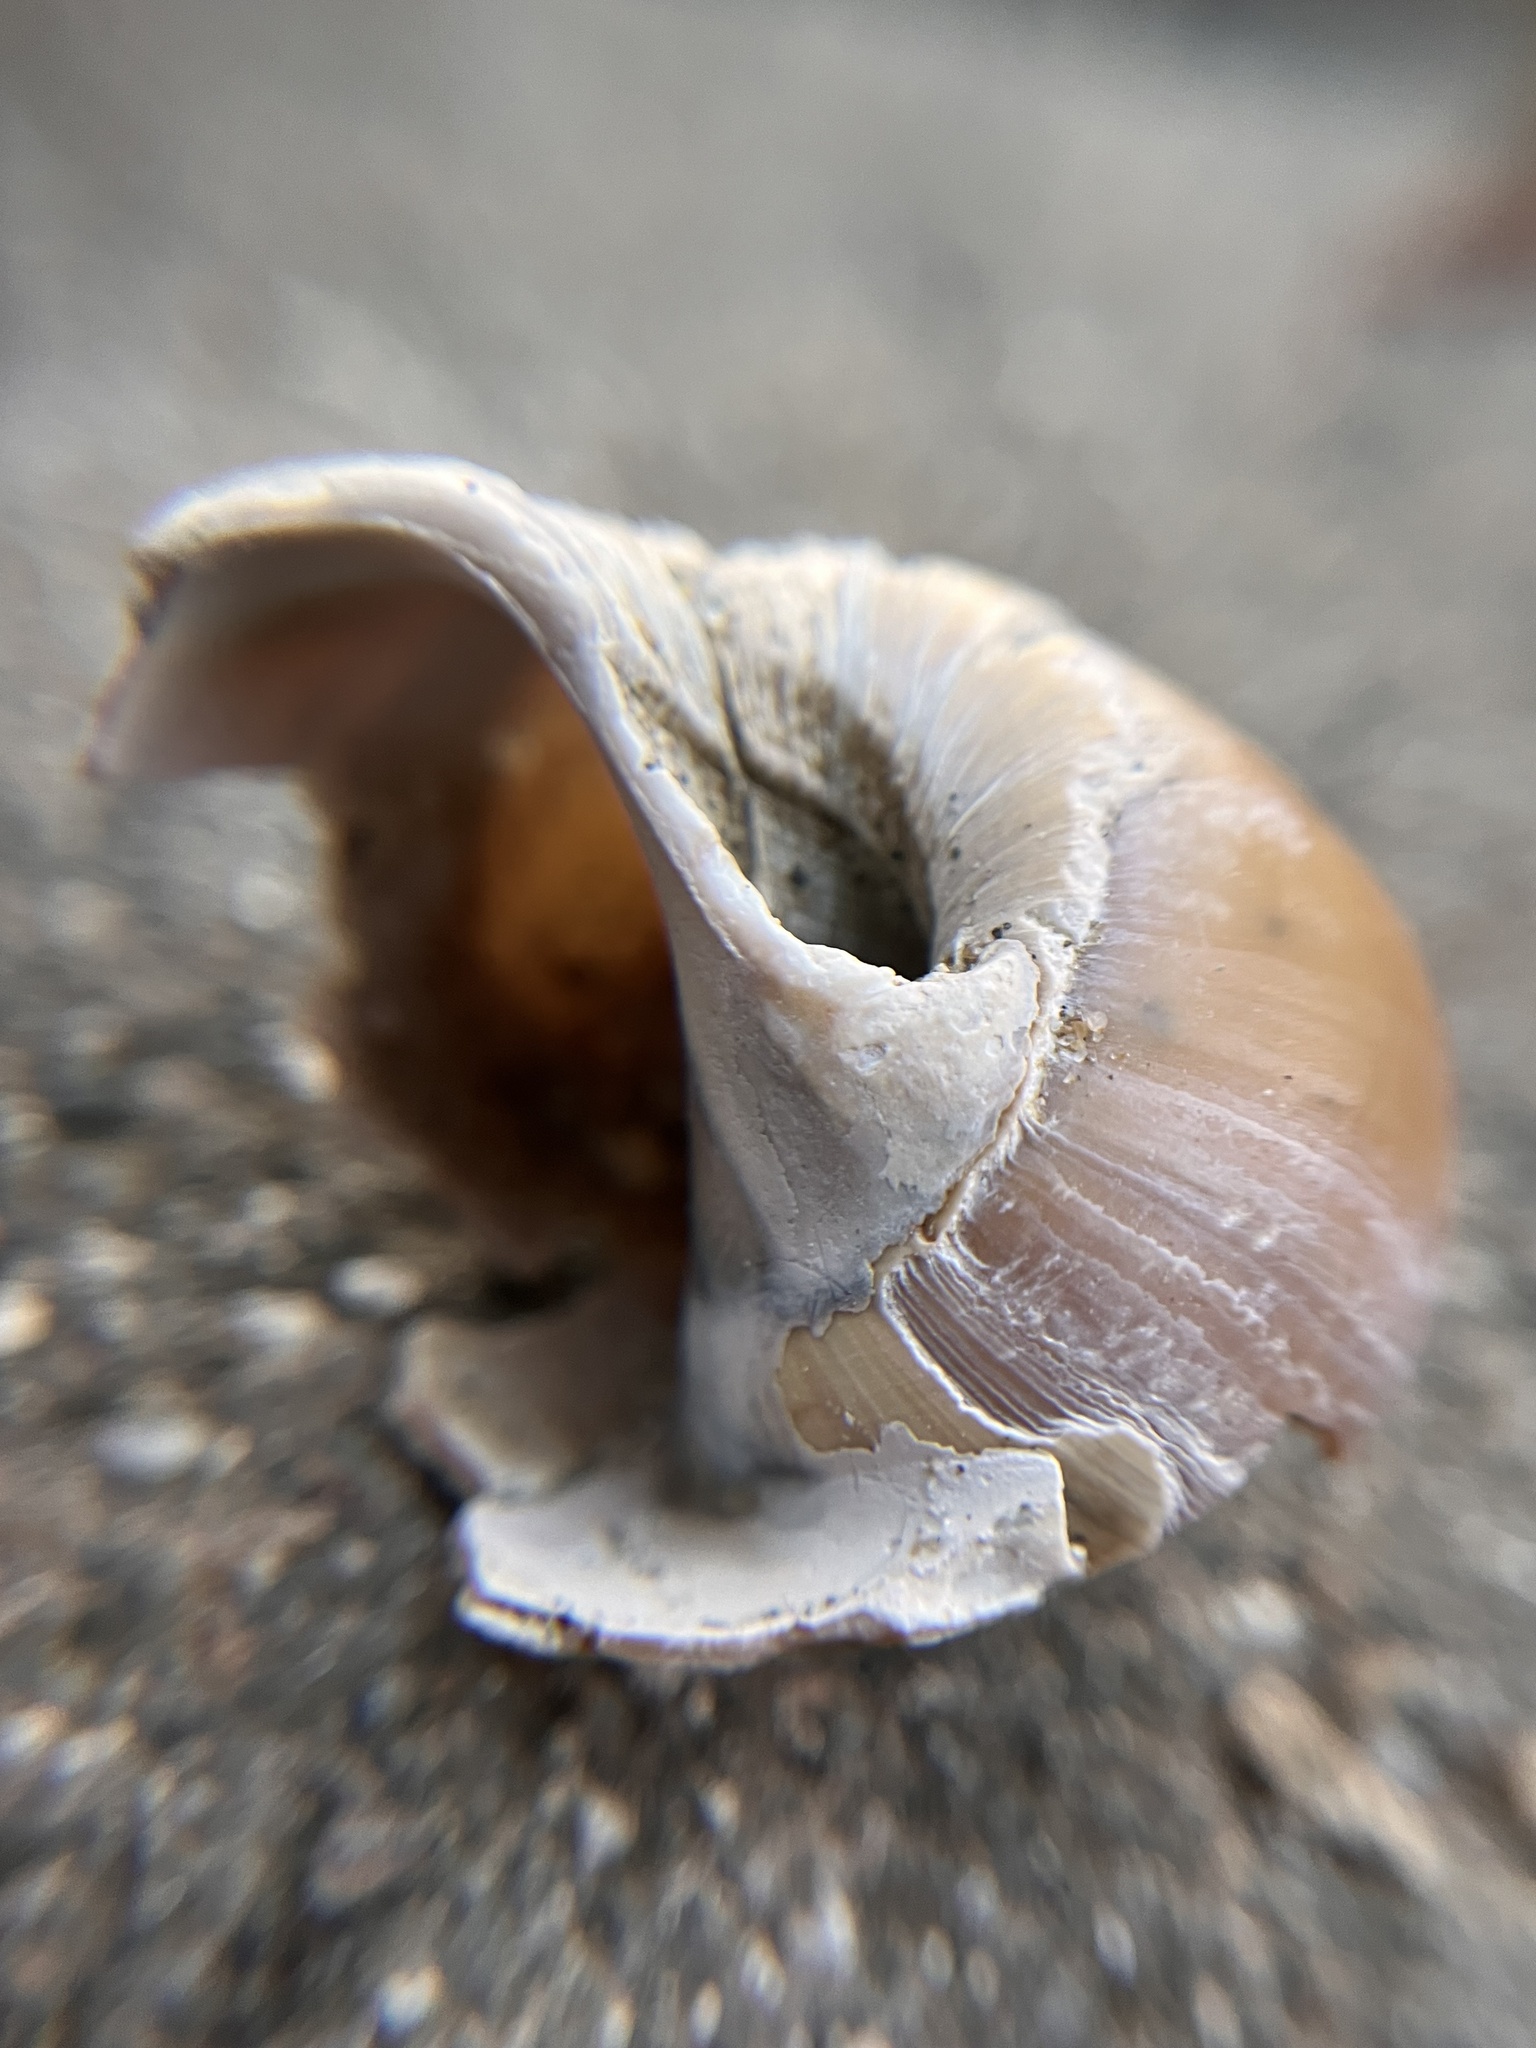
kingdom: Animalia
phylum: Mollusca
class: Gastropoda
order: Littorinimorpha
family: Naticidae
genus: Neverita
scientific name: Neverita lewisii
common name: Lewis' moonsnail
